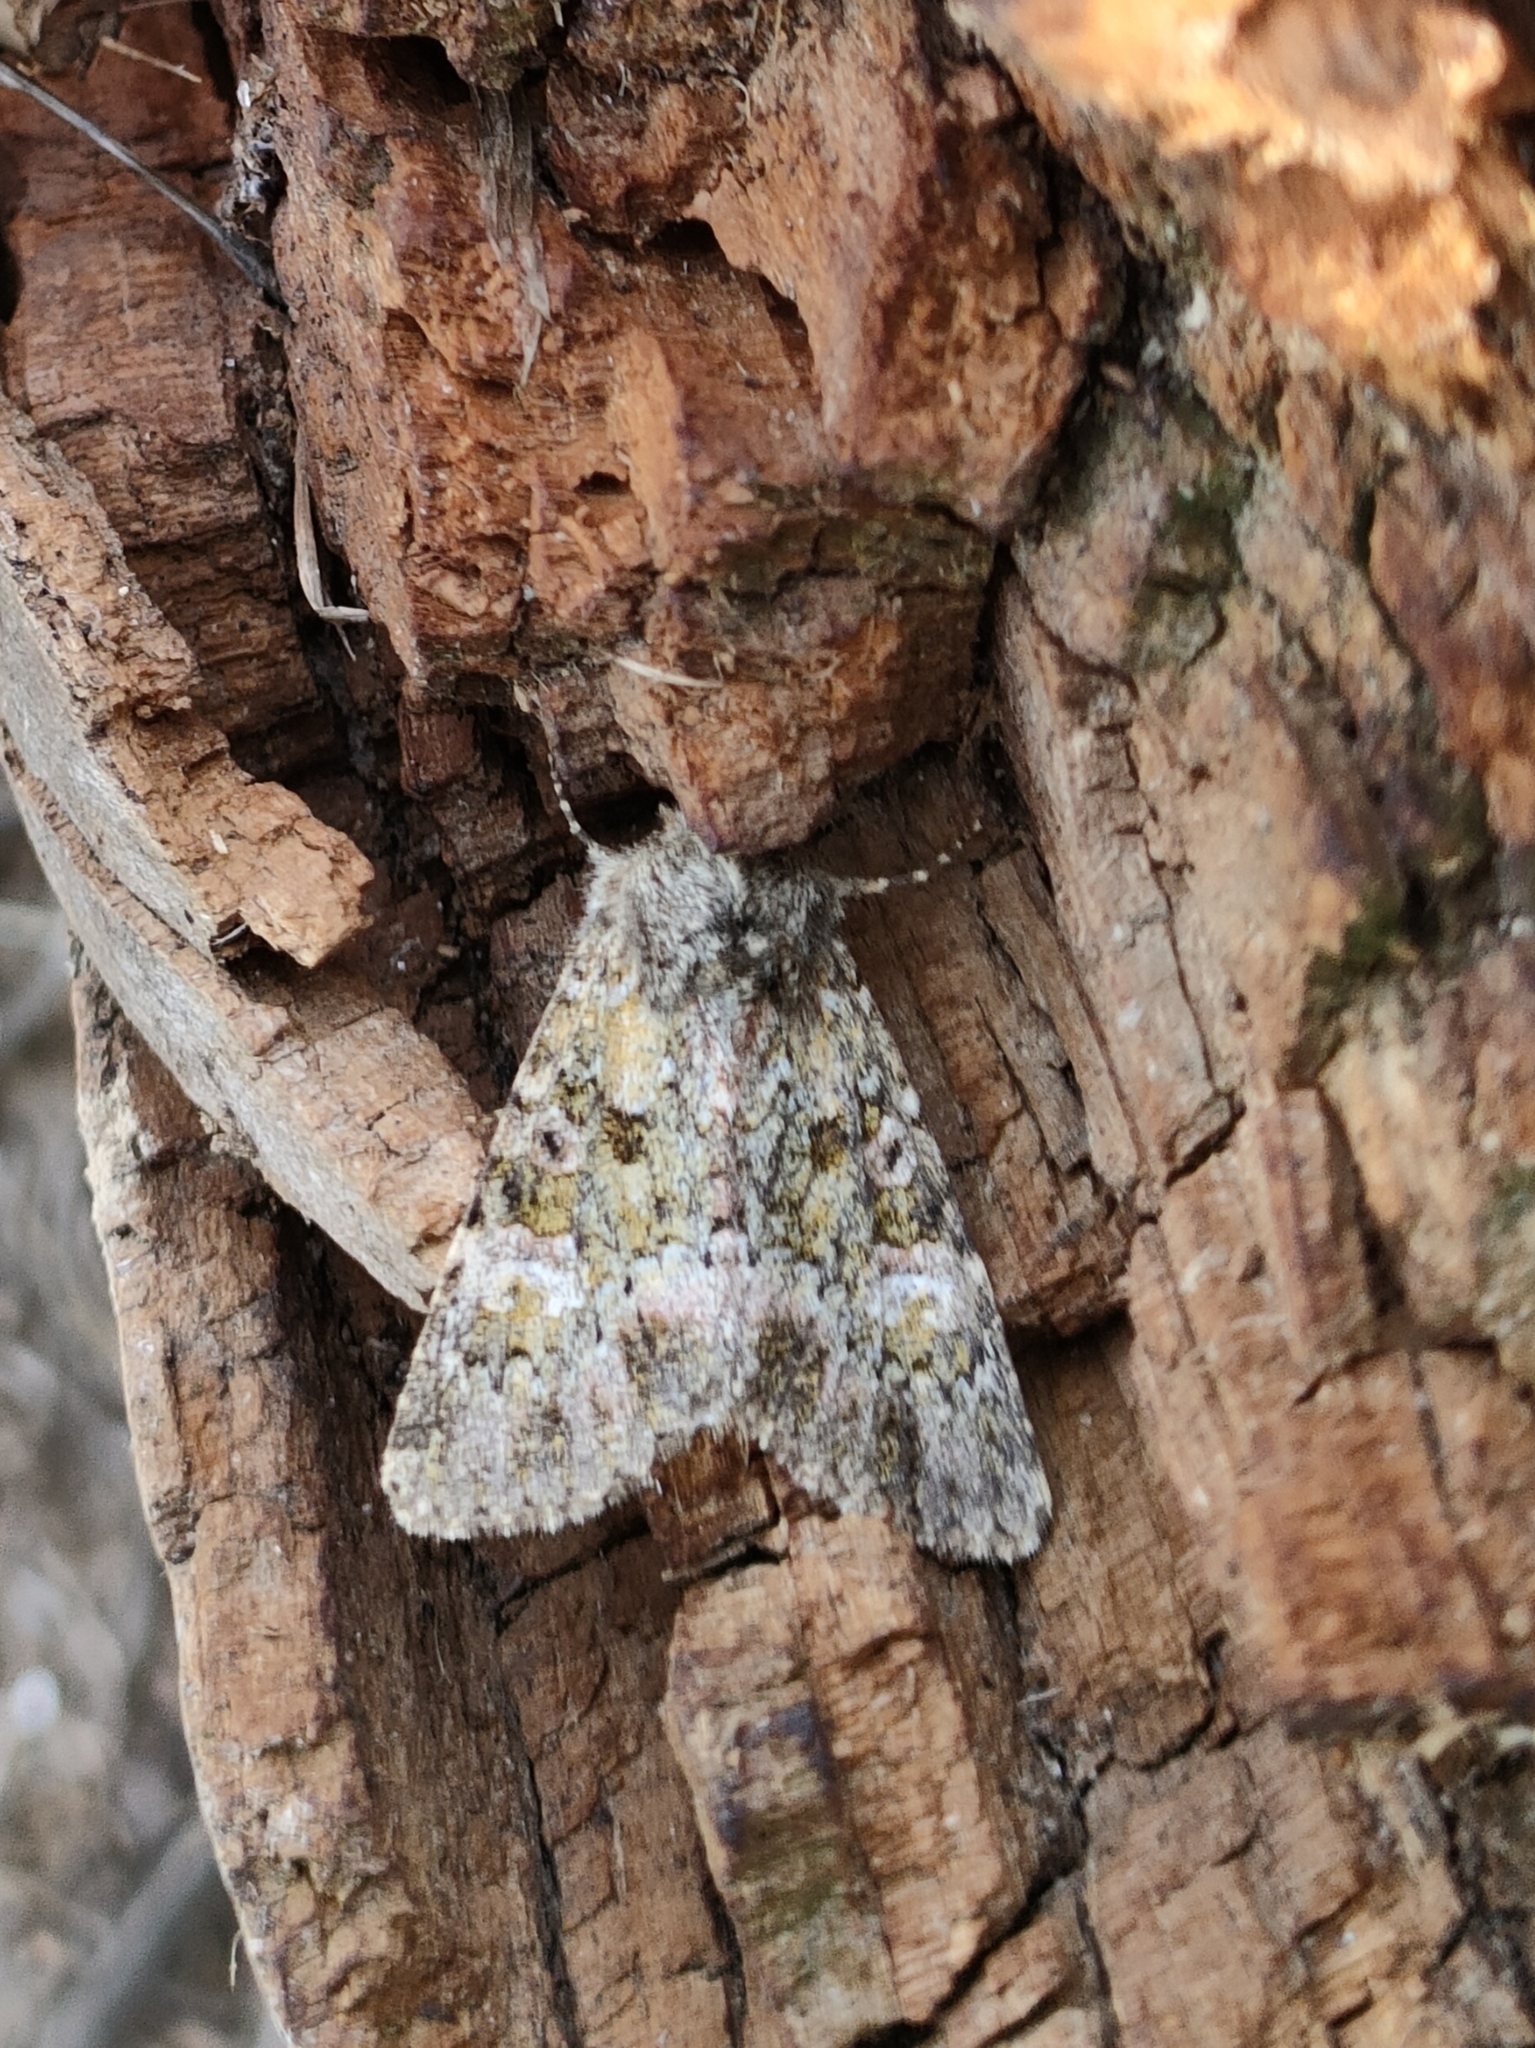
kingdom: Animalia
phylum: Arthropoda
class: Insecta
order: Lepidoptera
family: Noctuidae
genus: Polymixis
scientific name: Polymixis lichenea
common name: Feathered ranunculus
